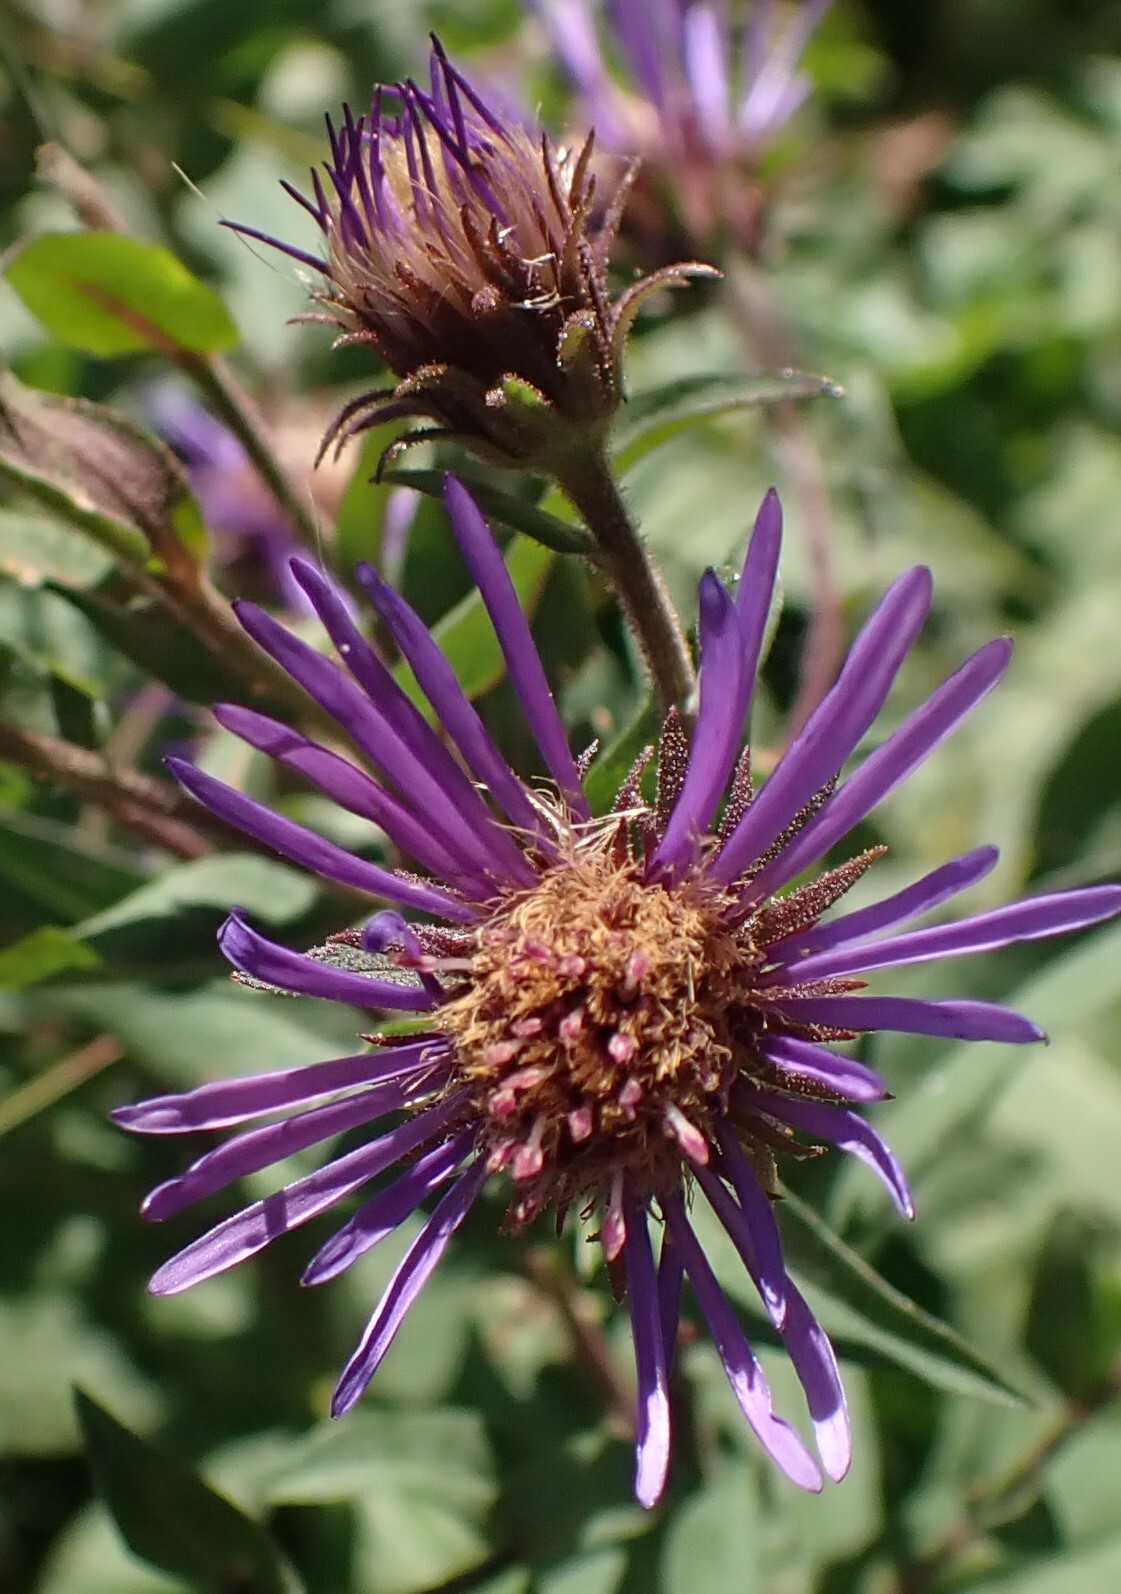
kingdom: Plantae
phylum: Tracheophyta
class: Magnoliopsida
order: Asterales
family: Asteraceae
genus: Canadanthus
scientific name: Canadanthus modestus
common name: Great northern aster
